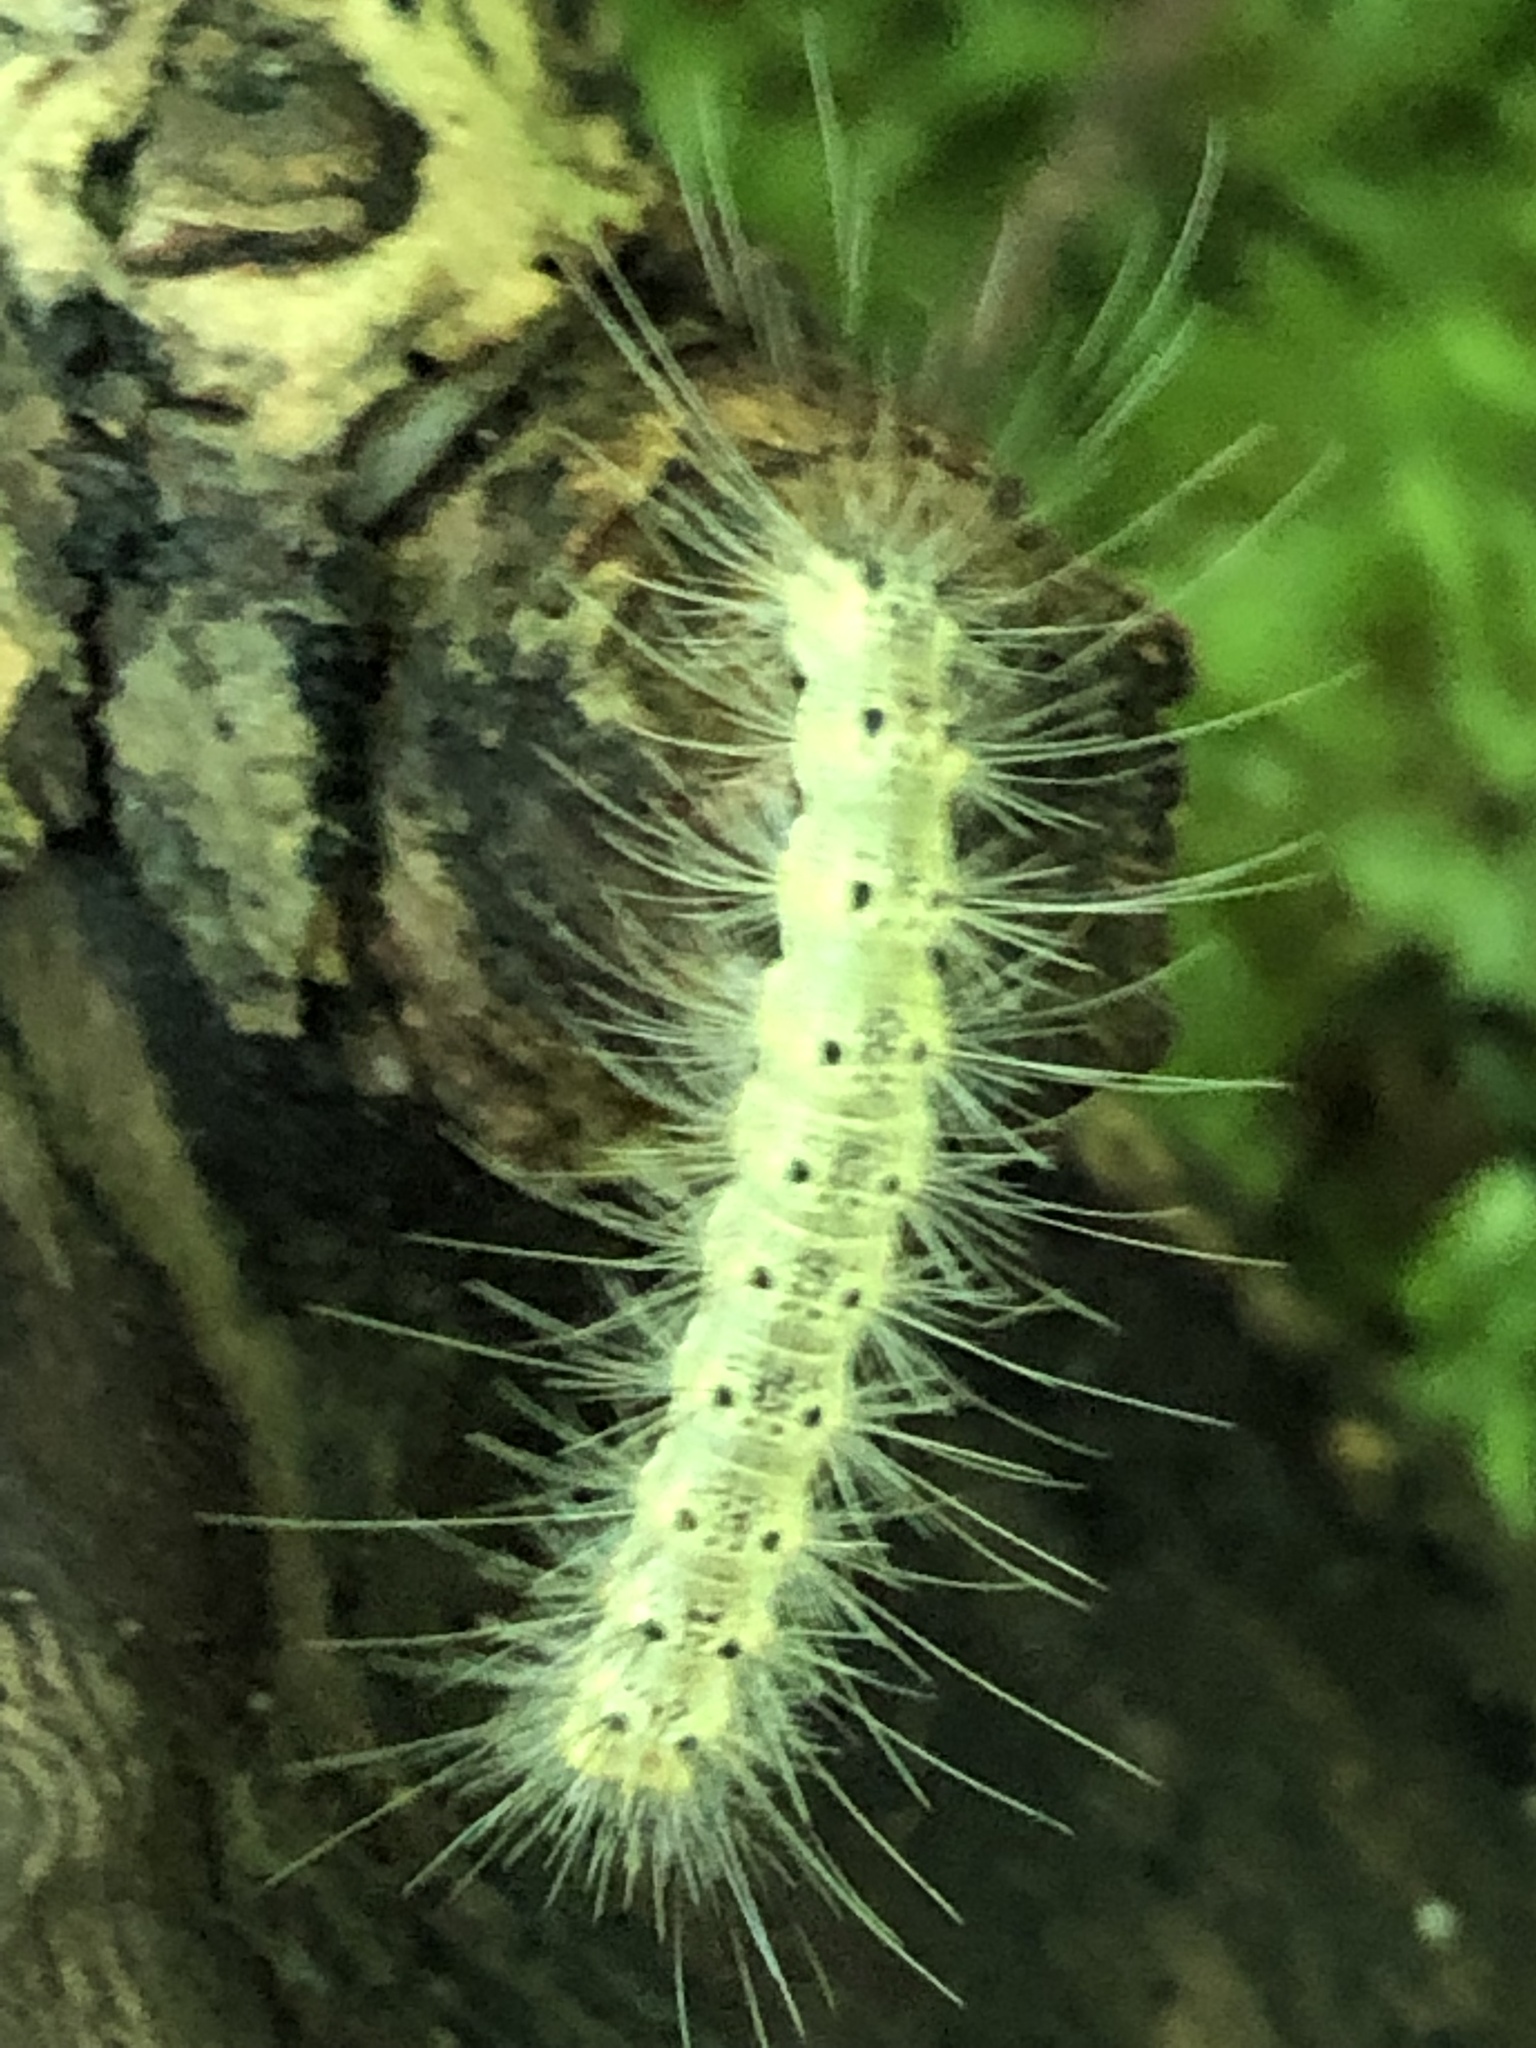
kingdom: Animalia
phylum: Arthropoda
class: Insecta
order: Lepidoptera
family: Erebidae
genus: Hyphantria
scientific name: Hyphantria cunea
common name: American white moth
